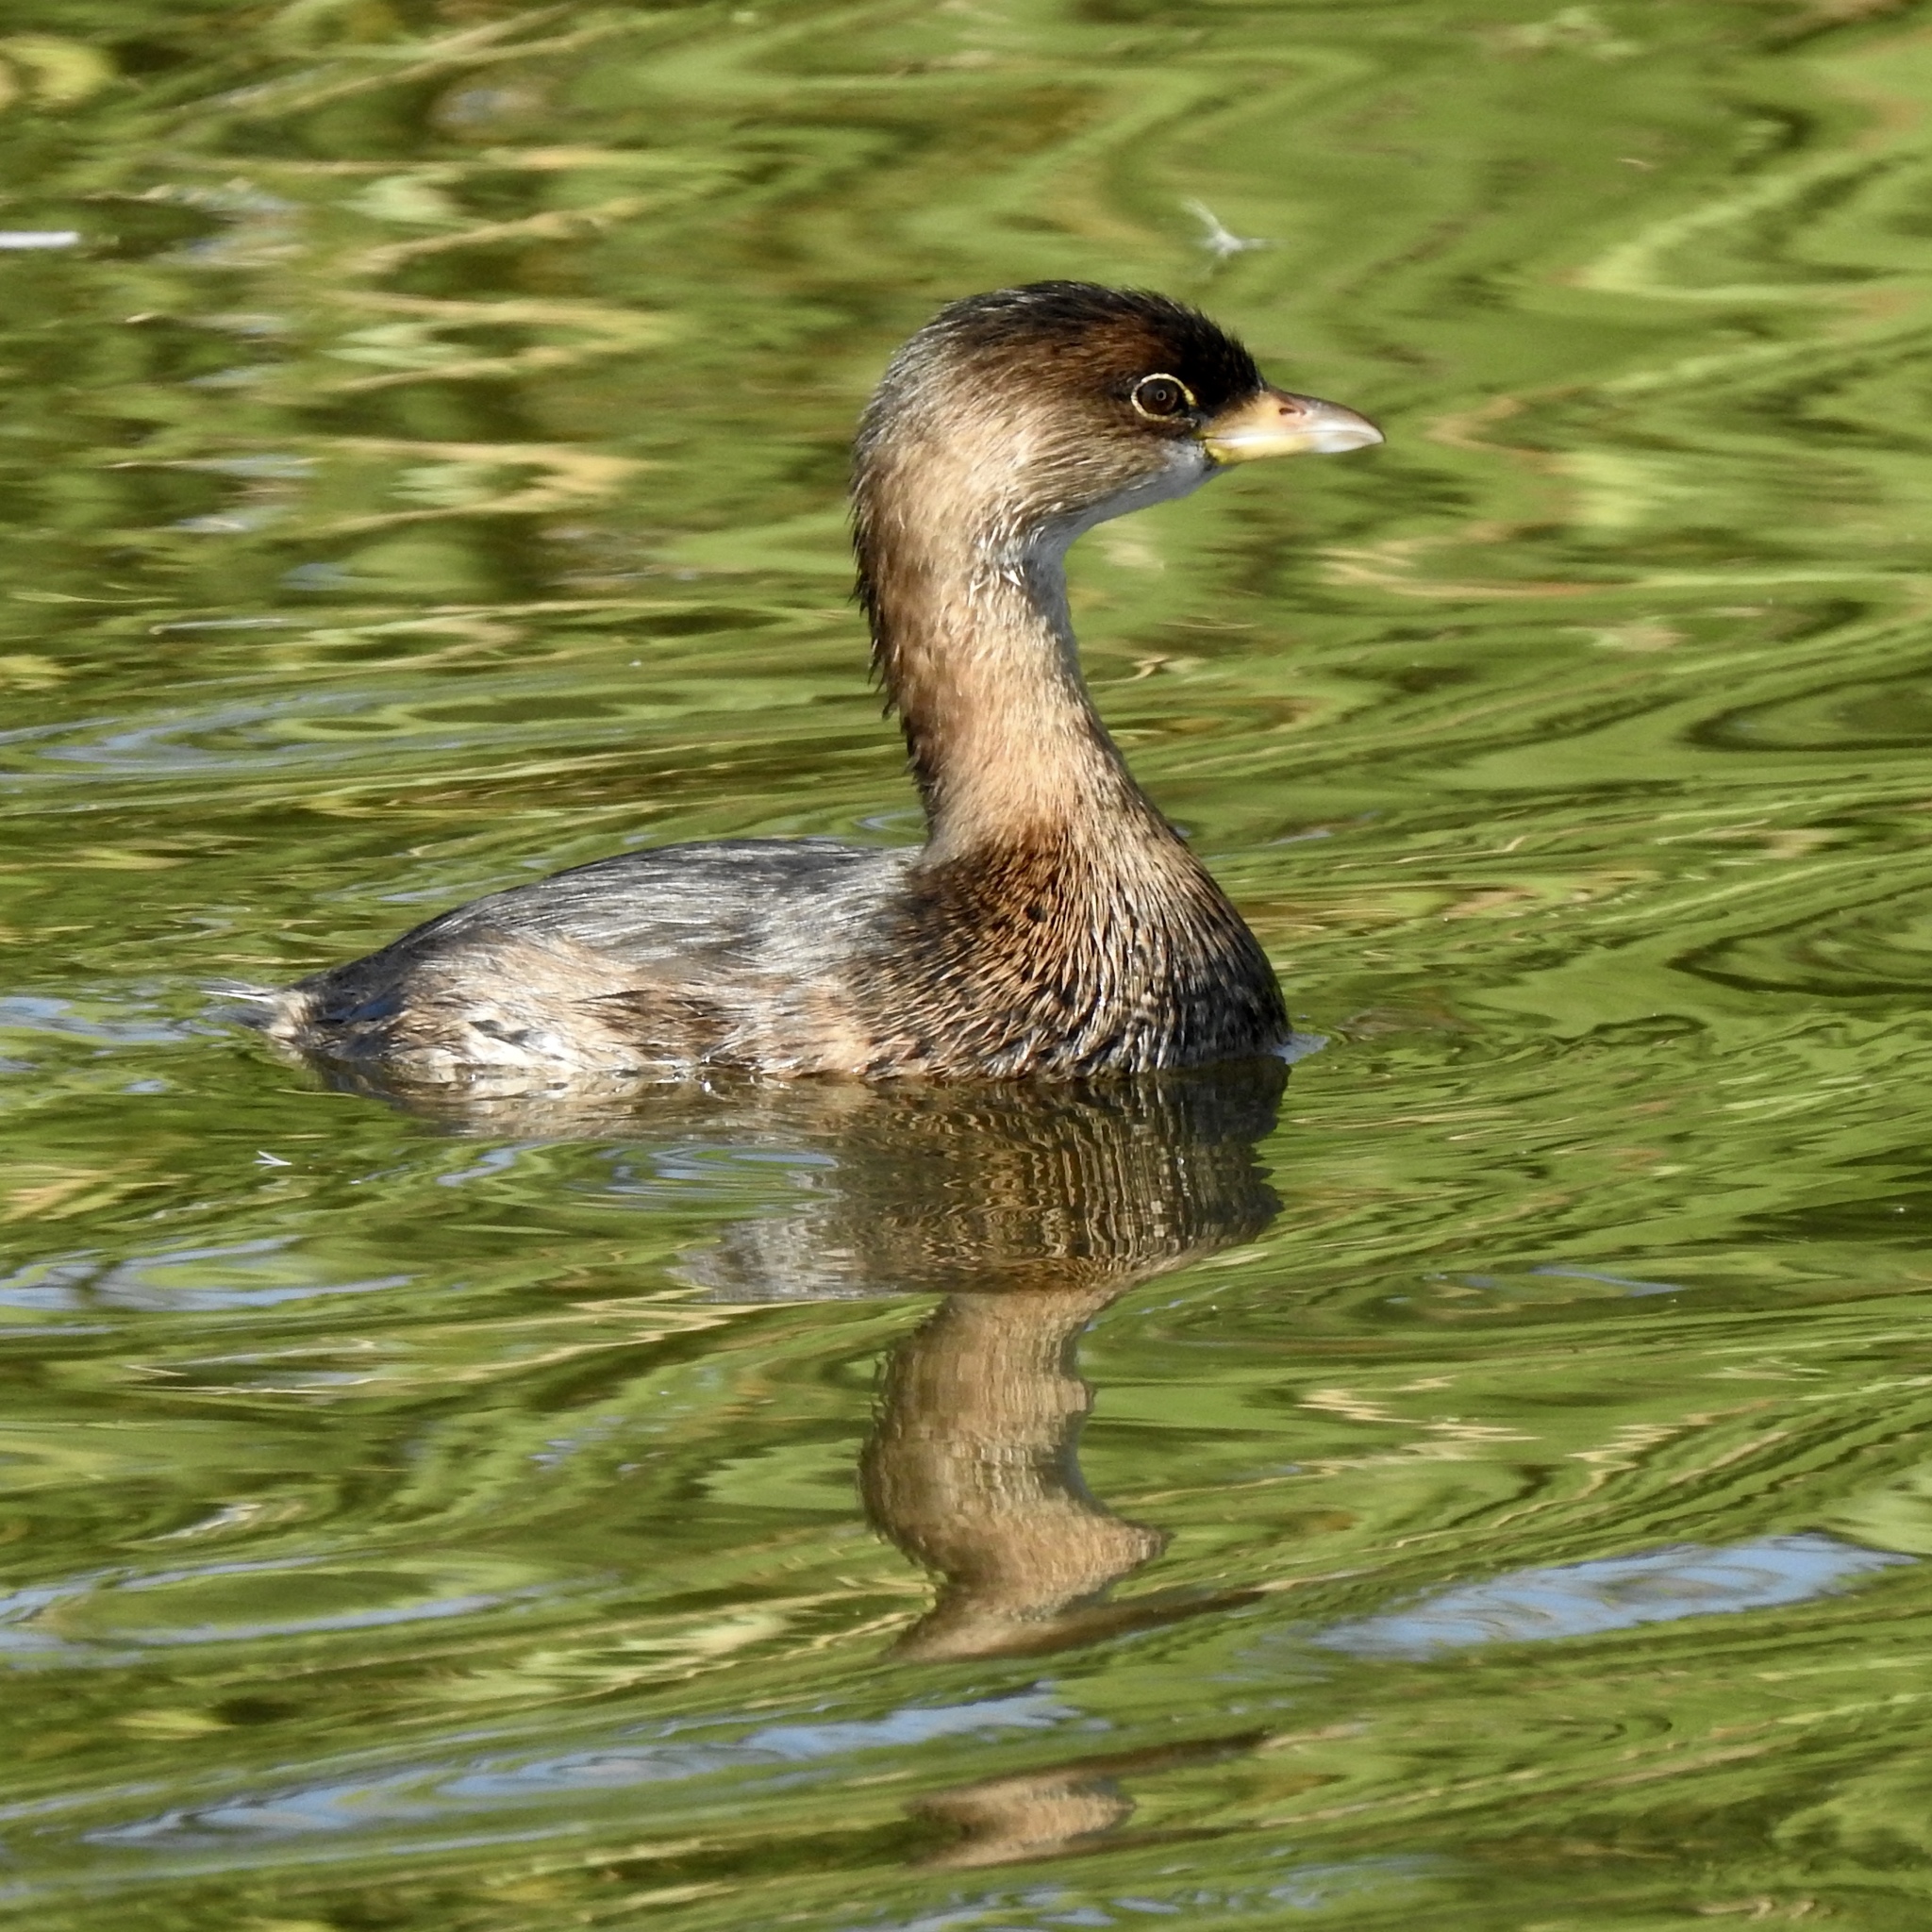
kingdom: Animalia
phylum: Chordata
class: Aves
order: Podicipediformes
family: Podicipedidae
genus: Podilymbus
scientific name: Podilymbus podiceps
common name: Pied-billed grebe
